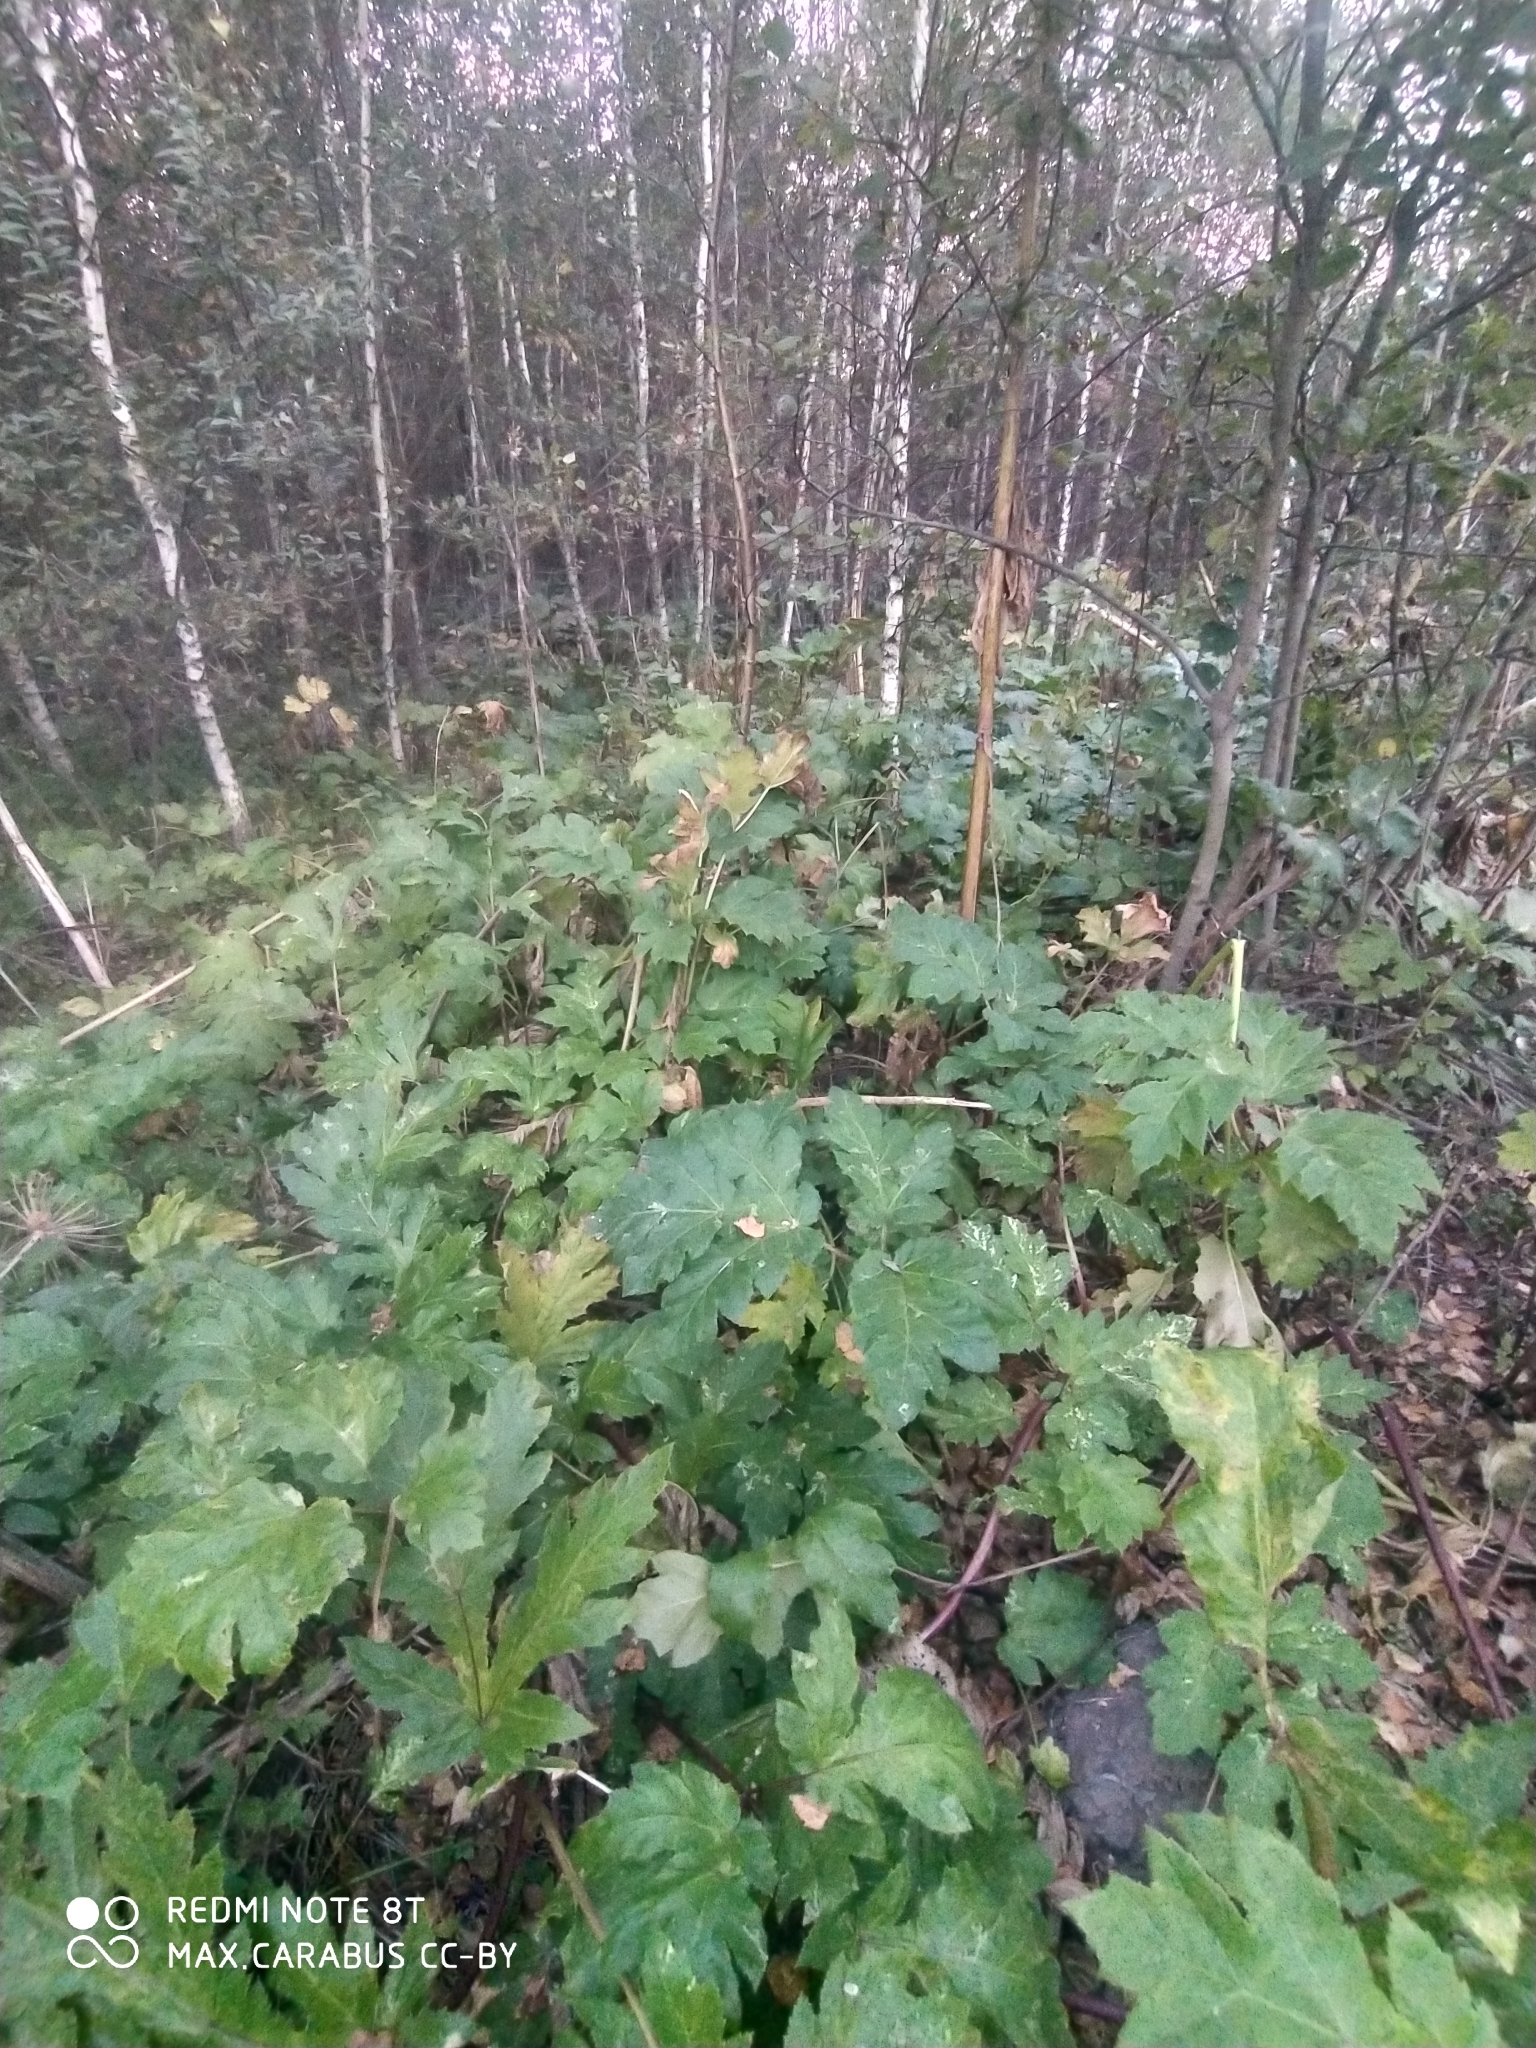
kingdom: Plantae
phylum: Tracheophyta
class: Magnoliopsida
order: Apiales
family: Apiaceae
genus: Heracleum
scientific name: Heracleum sosnowskyi
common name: Sosnowsky's hogweed
